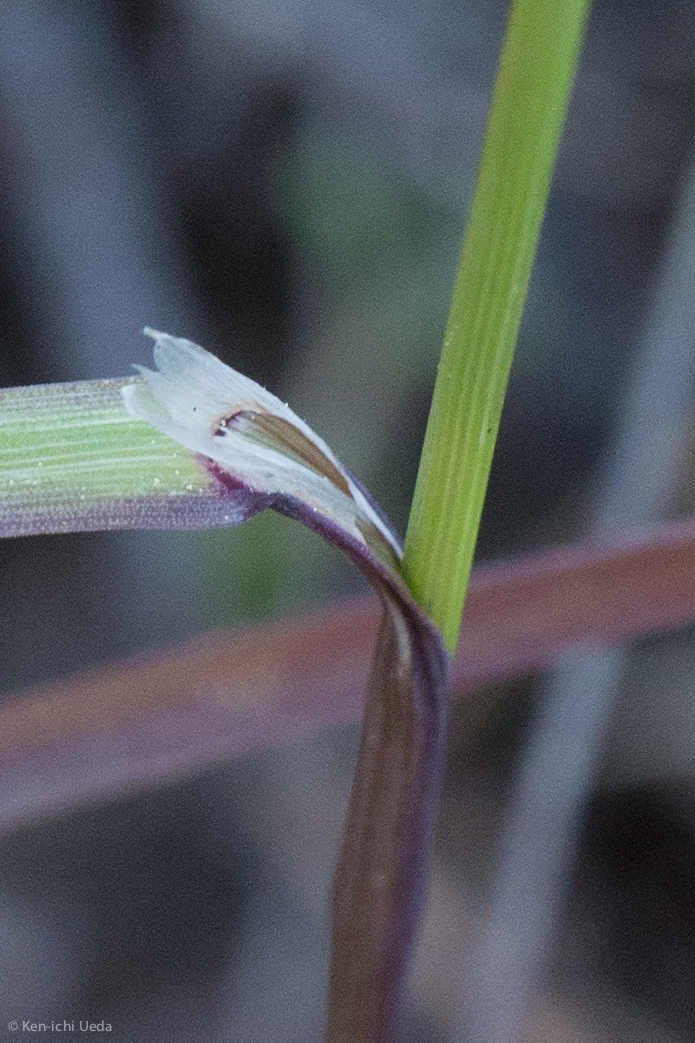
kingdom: Plantae
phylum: Tracheophyta
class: Liliopsida
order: Poales
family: Poaceae
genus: Melica
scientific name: Melica stricta
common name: Rock melic
